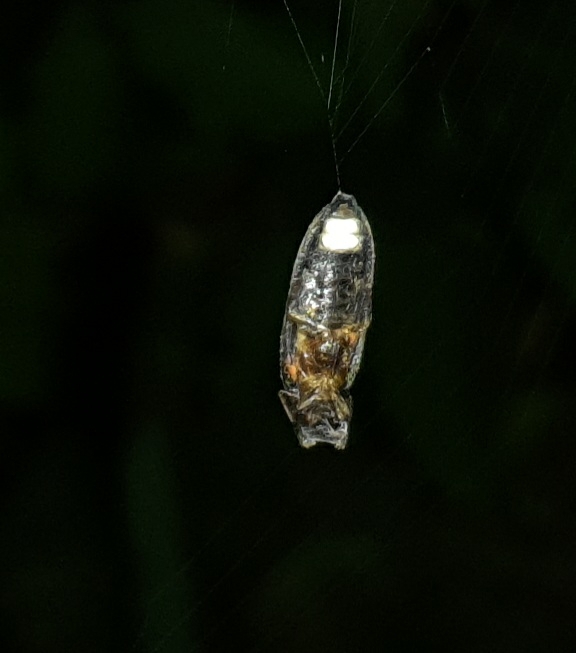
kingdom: Animalia
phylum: Arthropoda
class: Insecta
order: Coleoptera
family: Lampyridae
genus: Lamprohiza
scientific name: Lamprohiza splendidula
